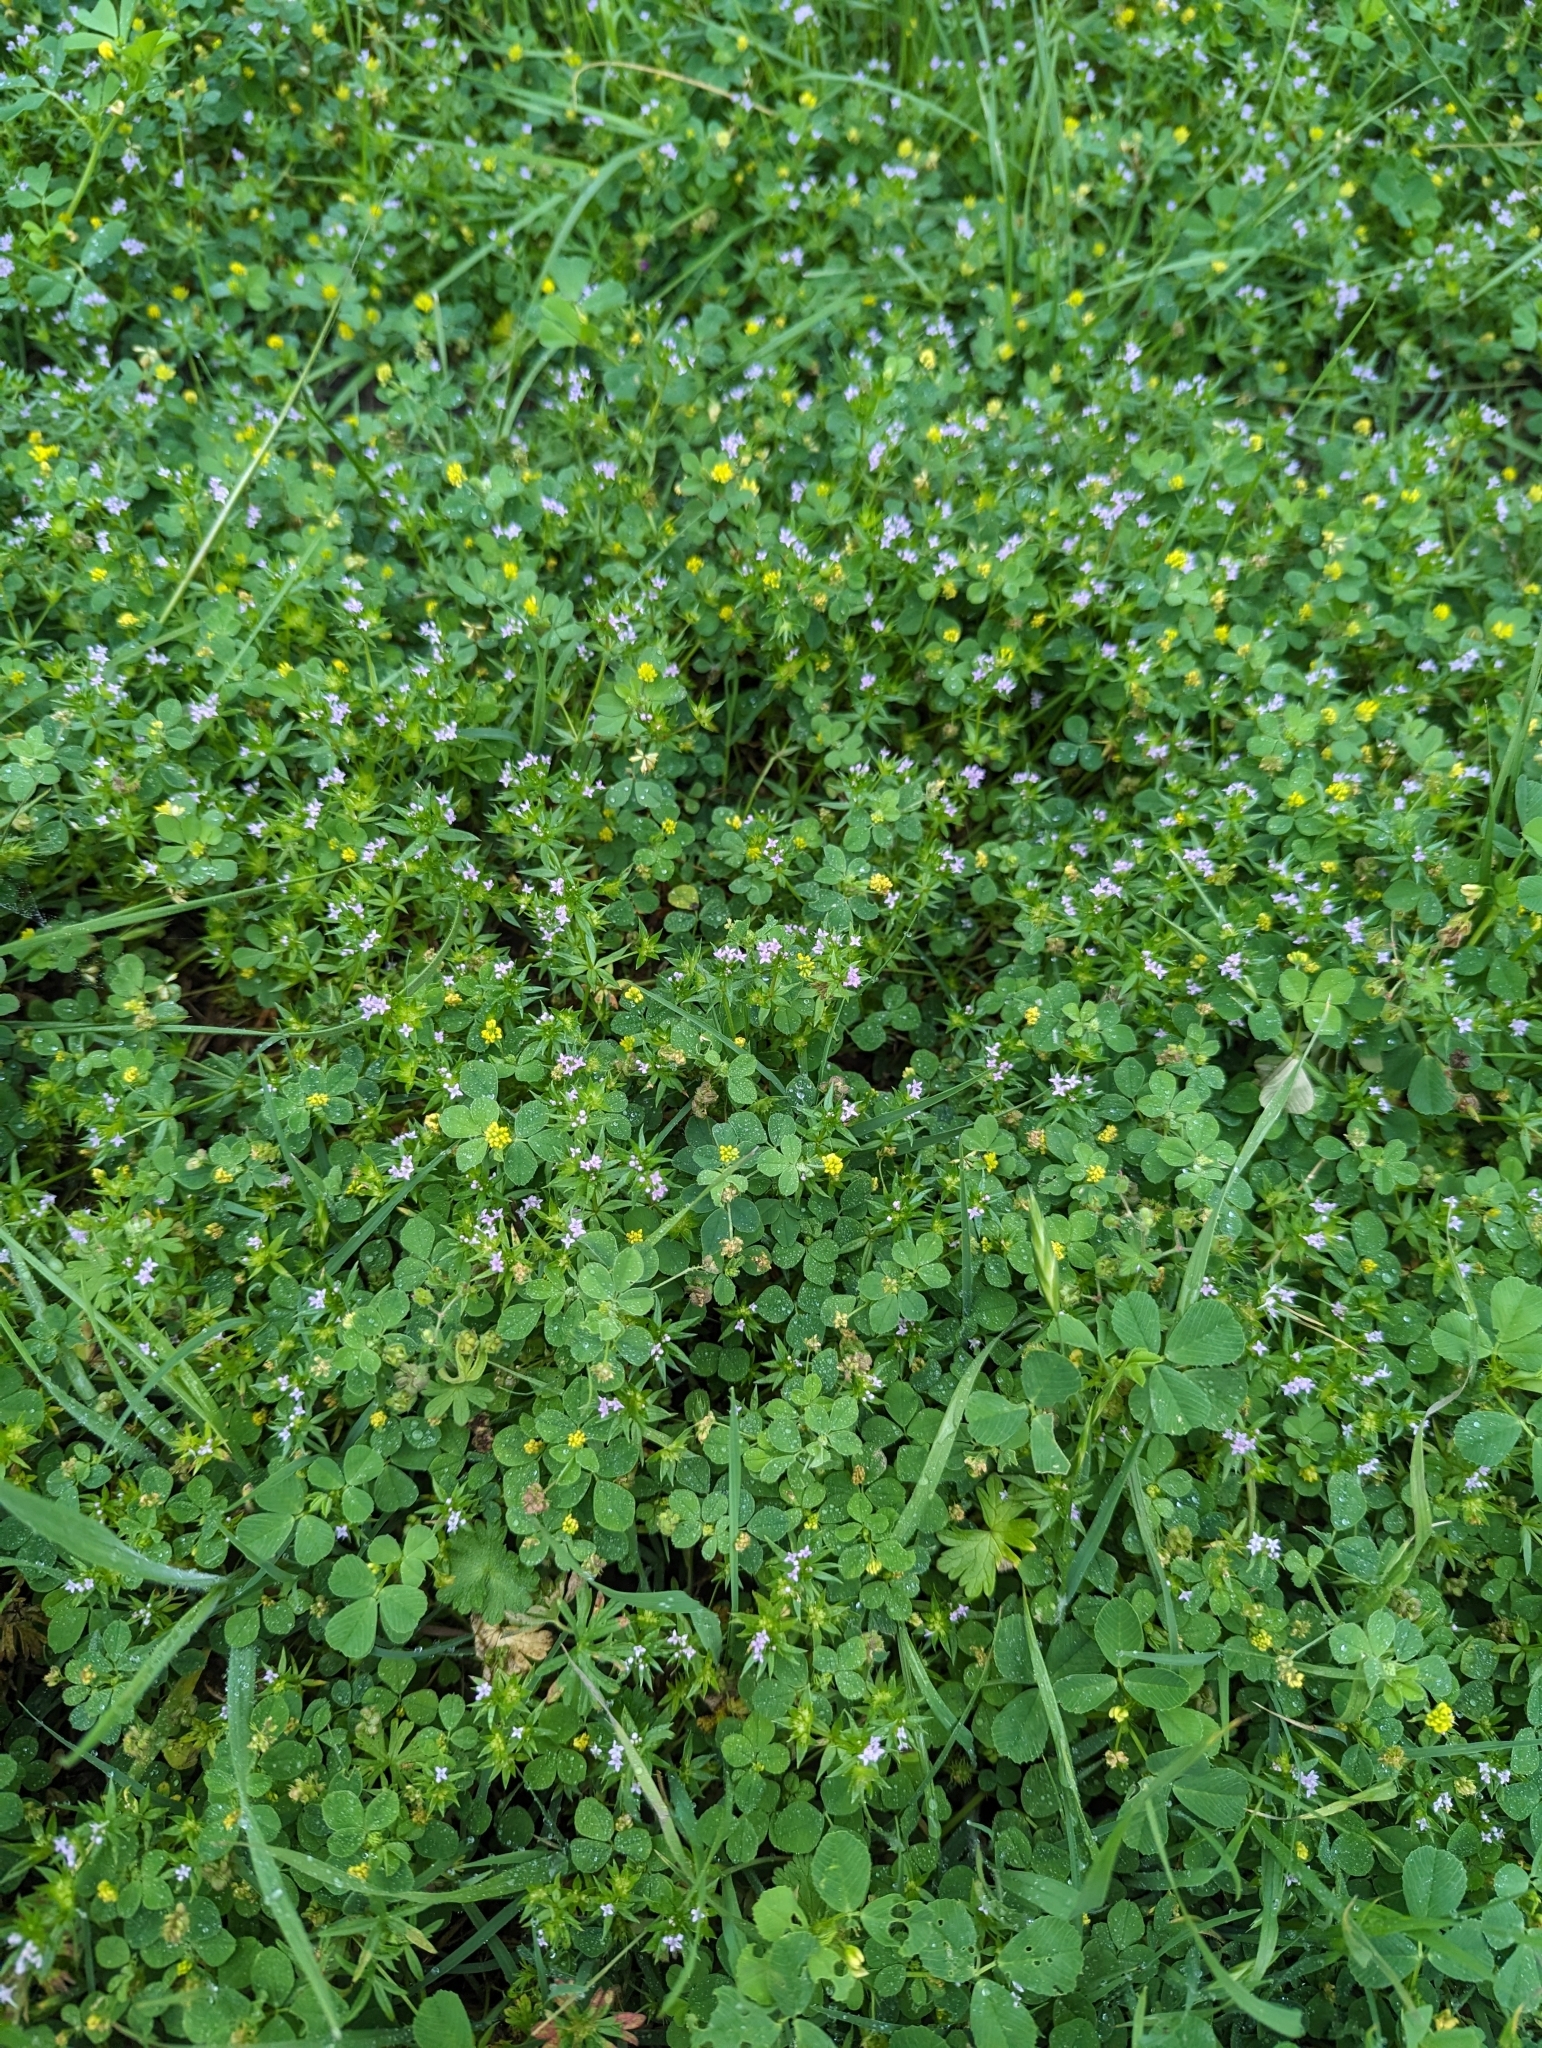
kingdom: Plantae
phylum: Tracheophyta
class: Magnoliopsida
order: Gentianales
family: Rubiaceae
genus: Sherardia
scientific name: Sherardia arvensis
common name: Field madder
